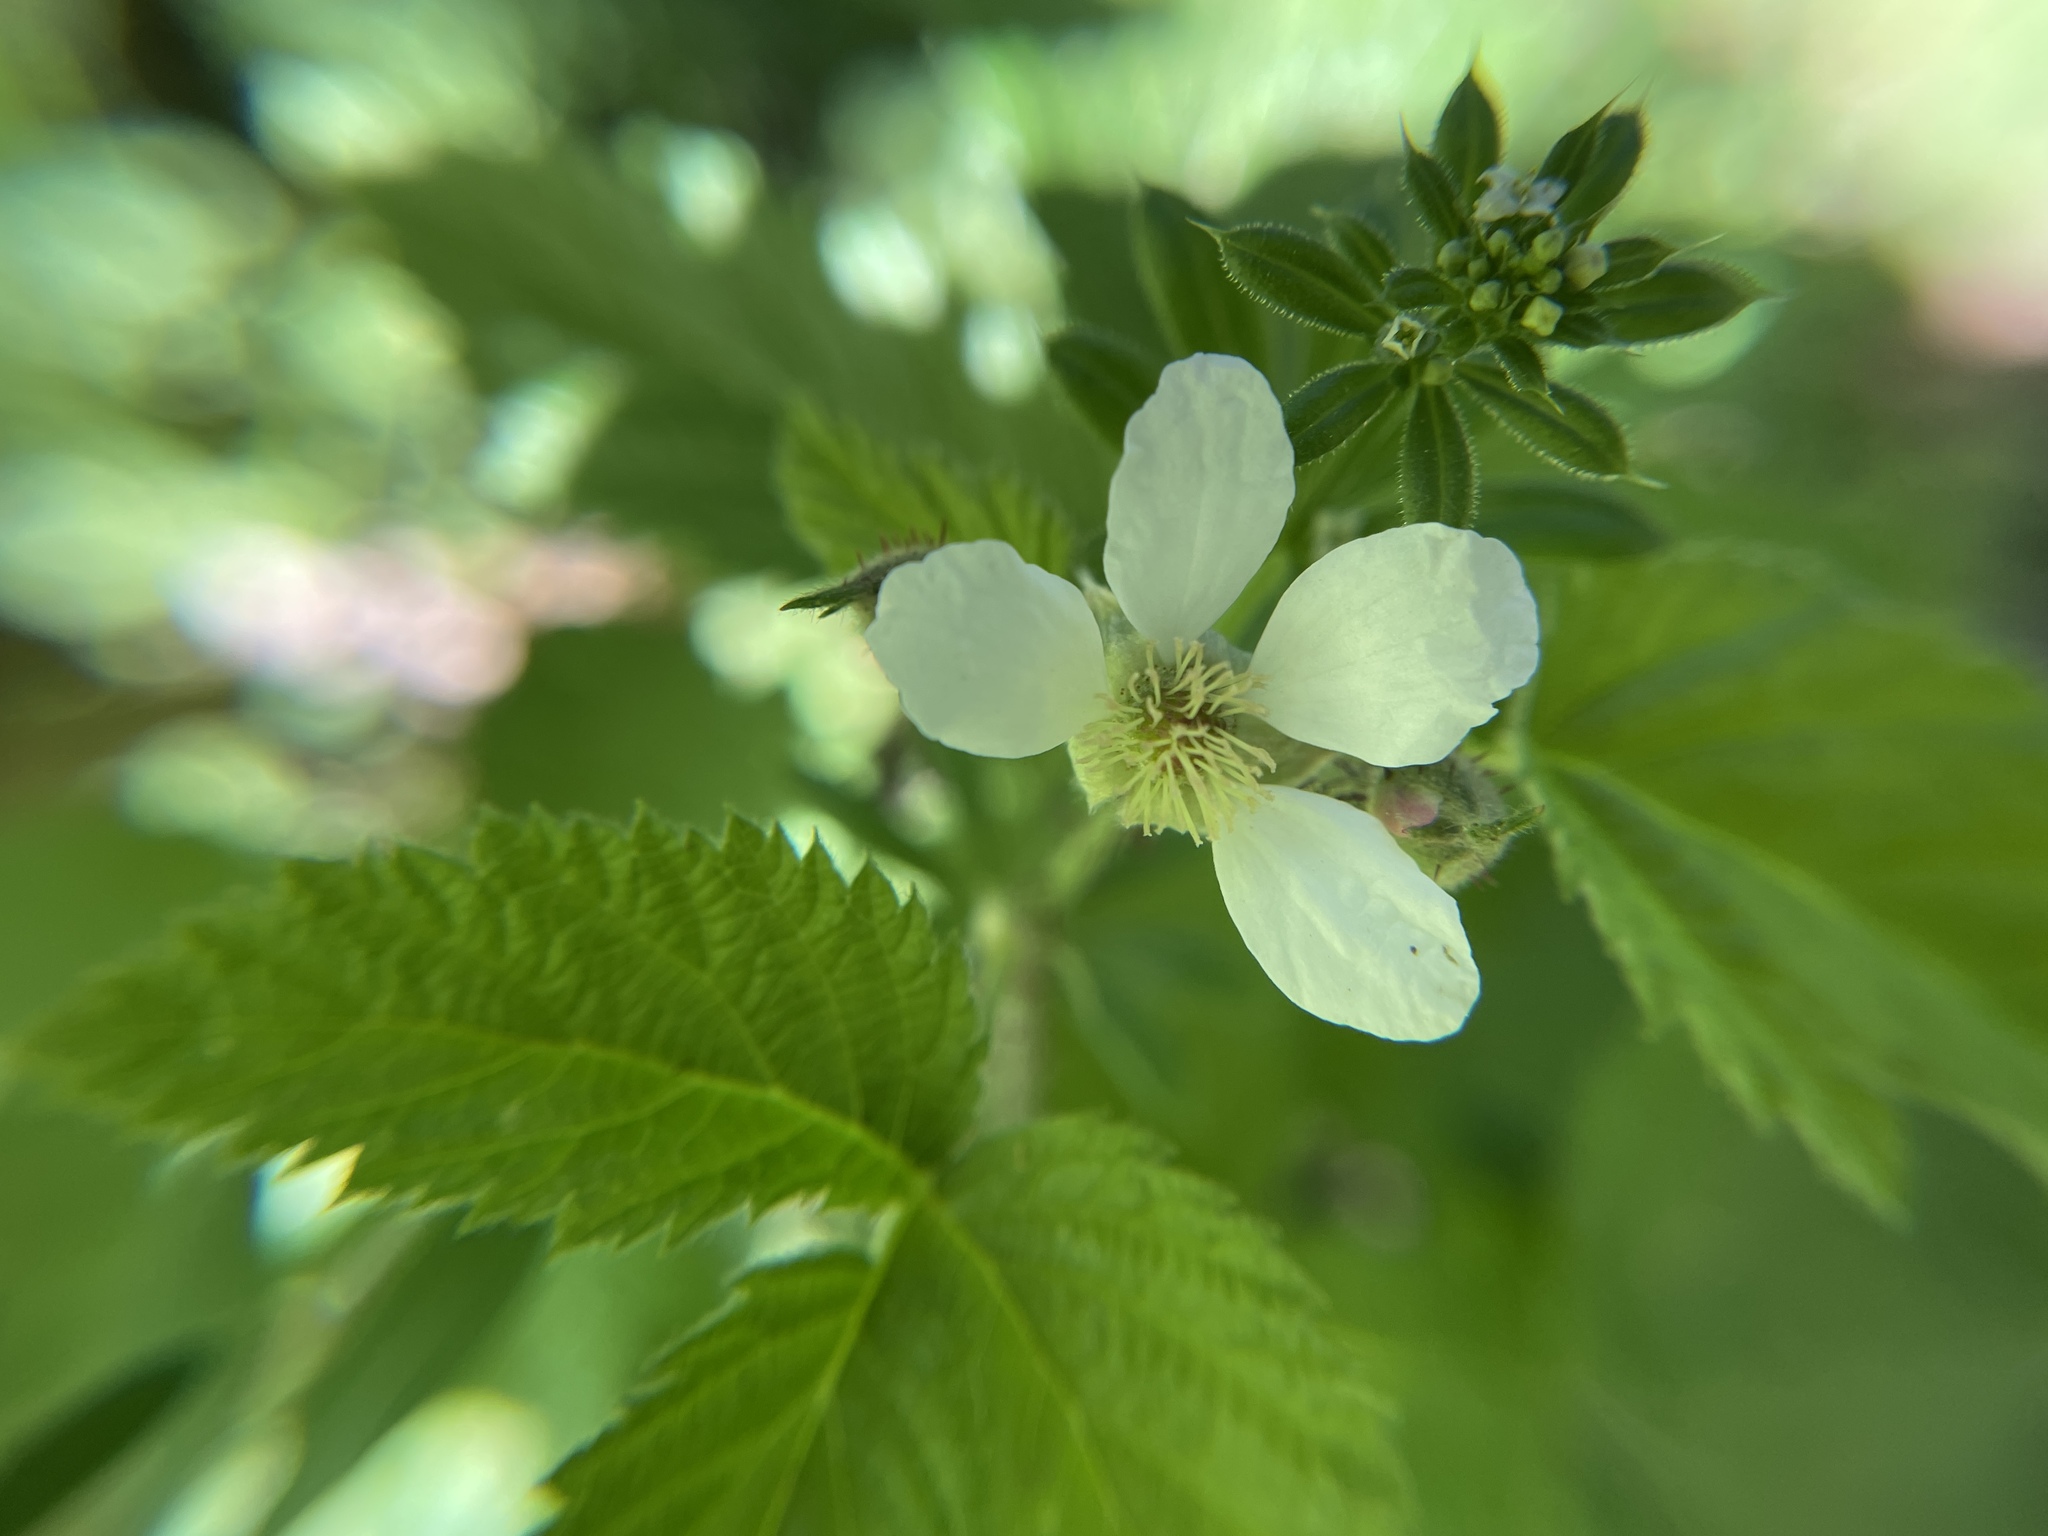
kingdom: Plantae
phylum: Tracheophyta
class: Magnoliopsida
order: Rosales
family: Rosaceae
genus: Rubus
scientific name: Rubus ursinus
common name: Pacific blackberry
